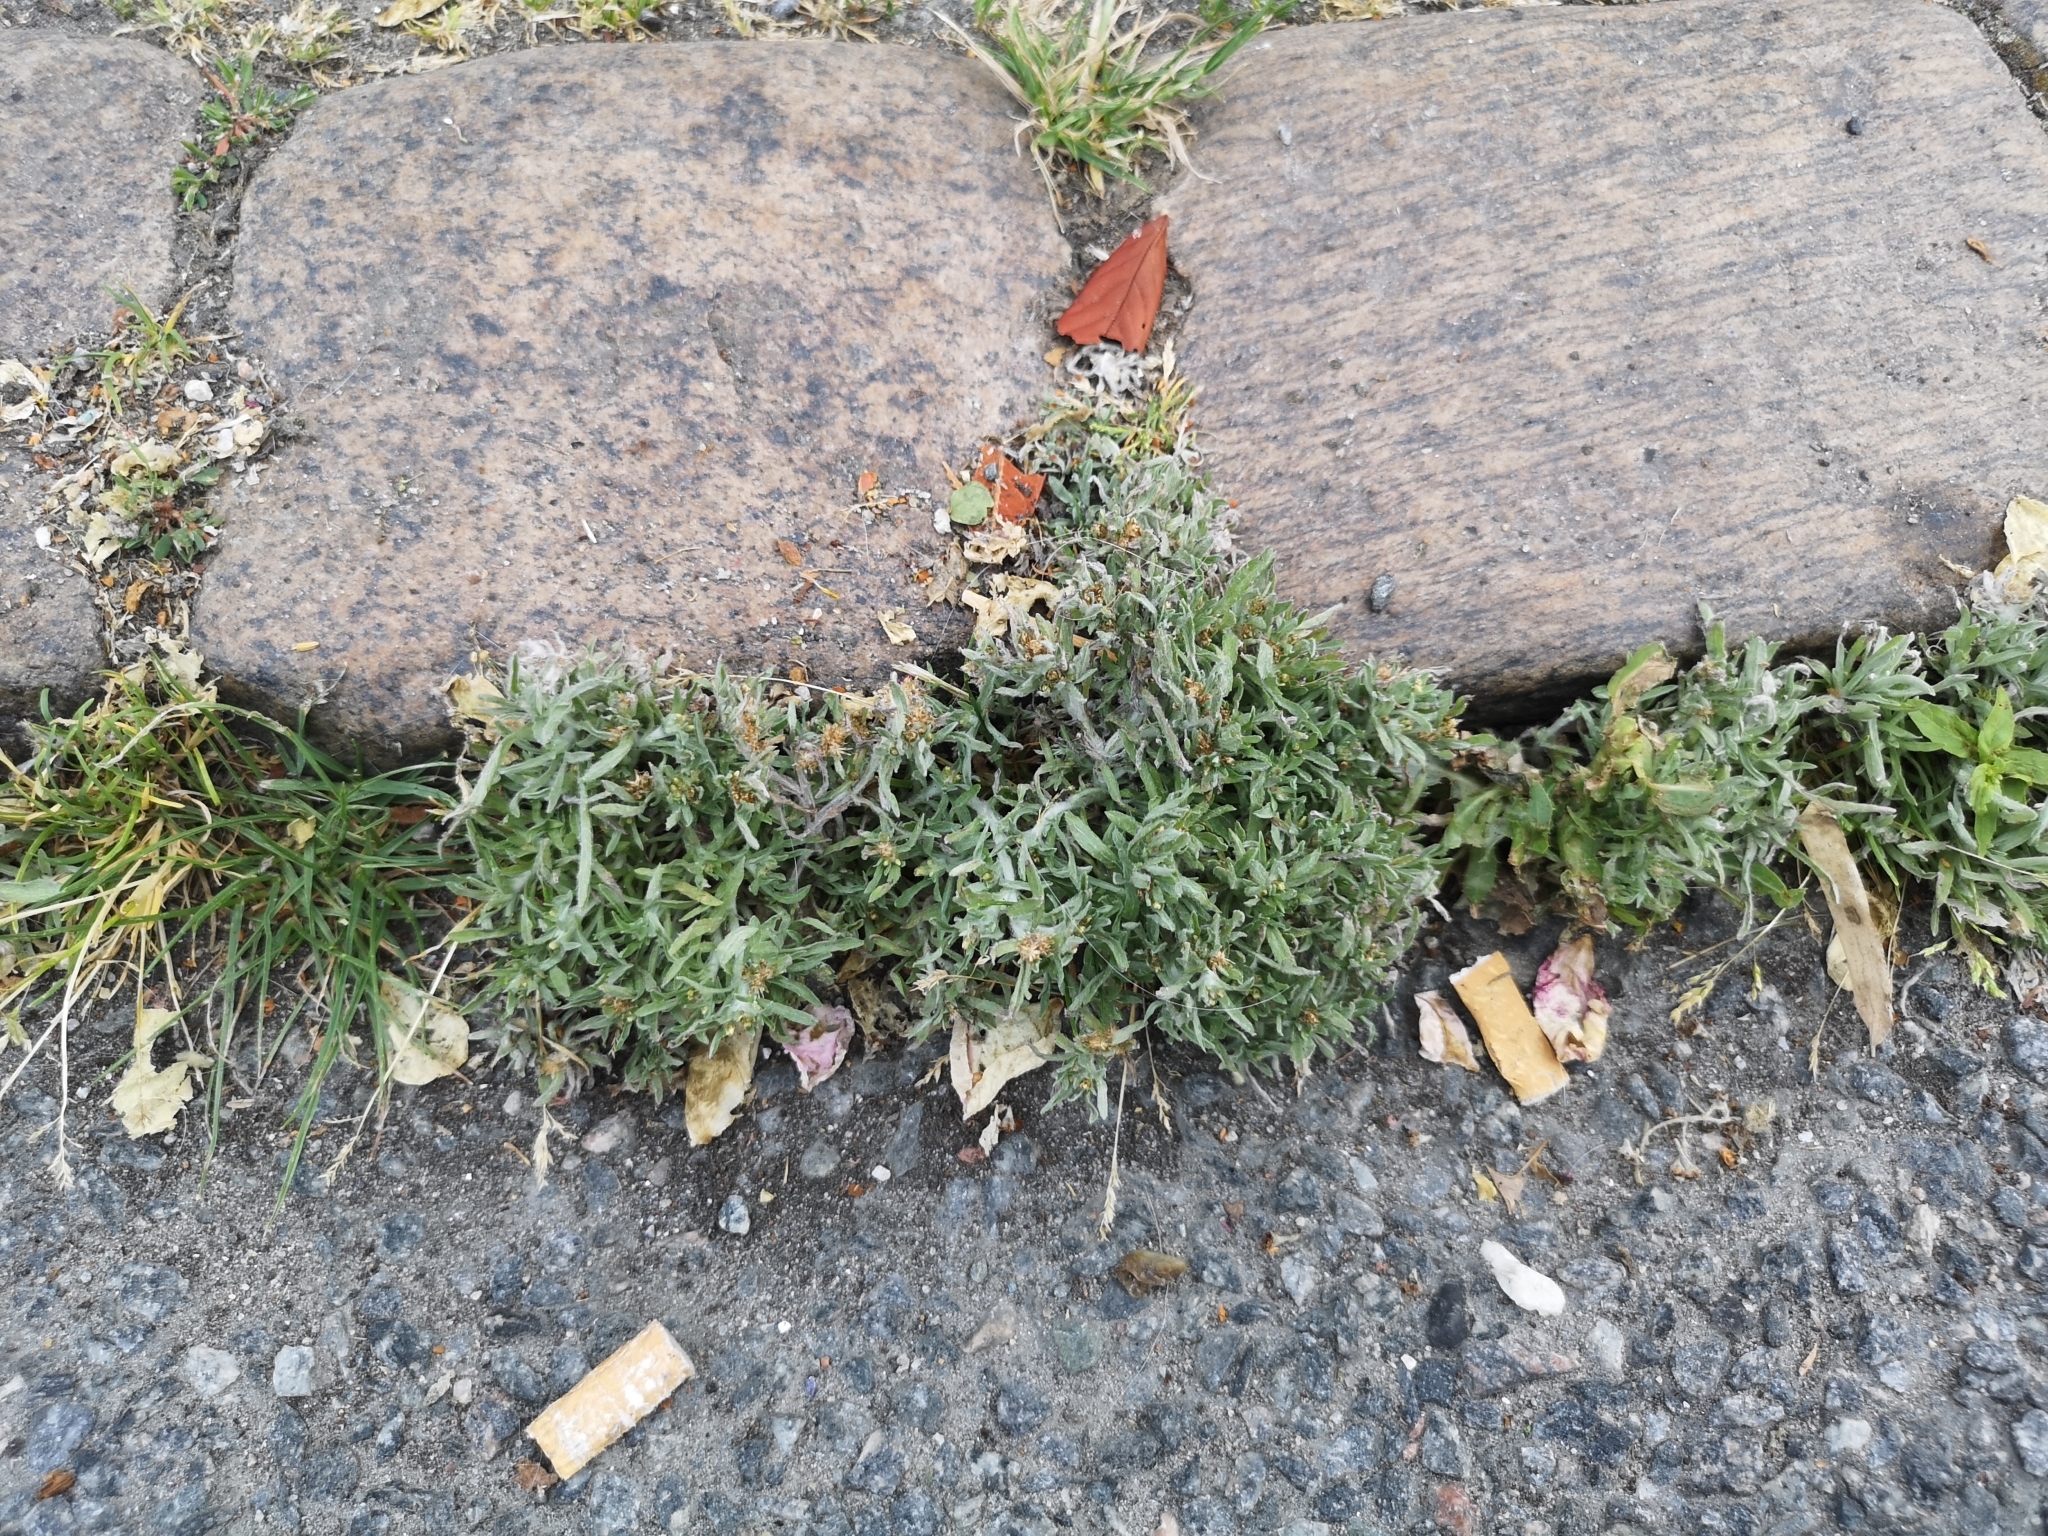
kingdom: Plantae
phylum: Tracheophyta
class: Magnoliopsida
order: Asterales
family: Asteraceae
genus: Gnaphalium
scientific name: Gnaphalium uliginosum
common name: Marsh cudweed
